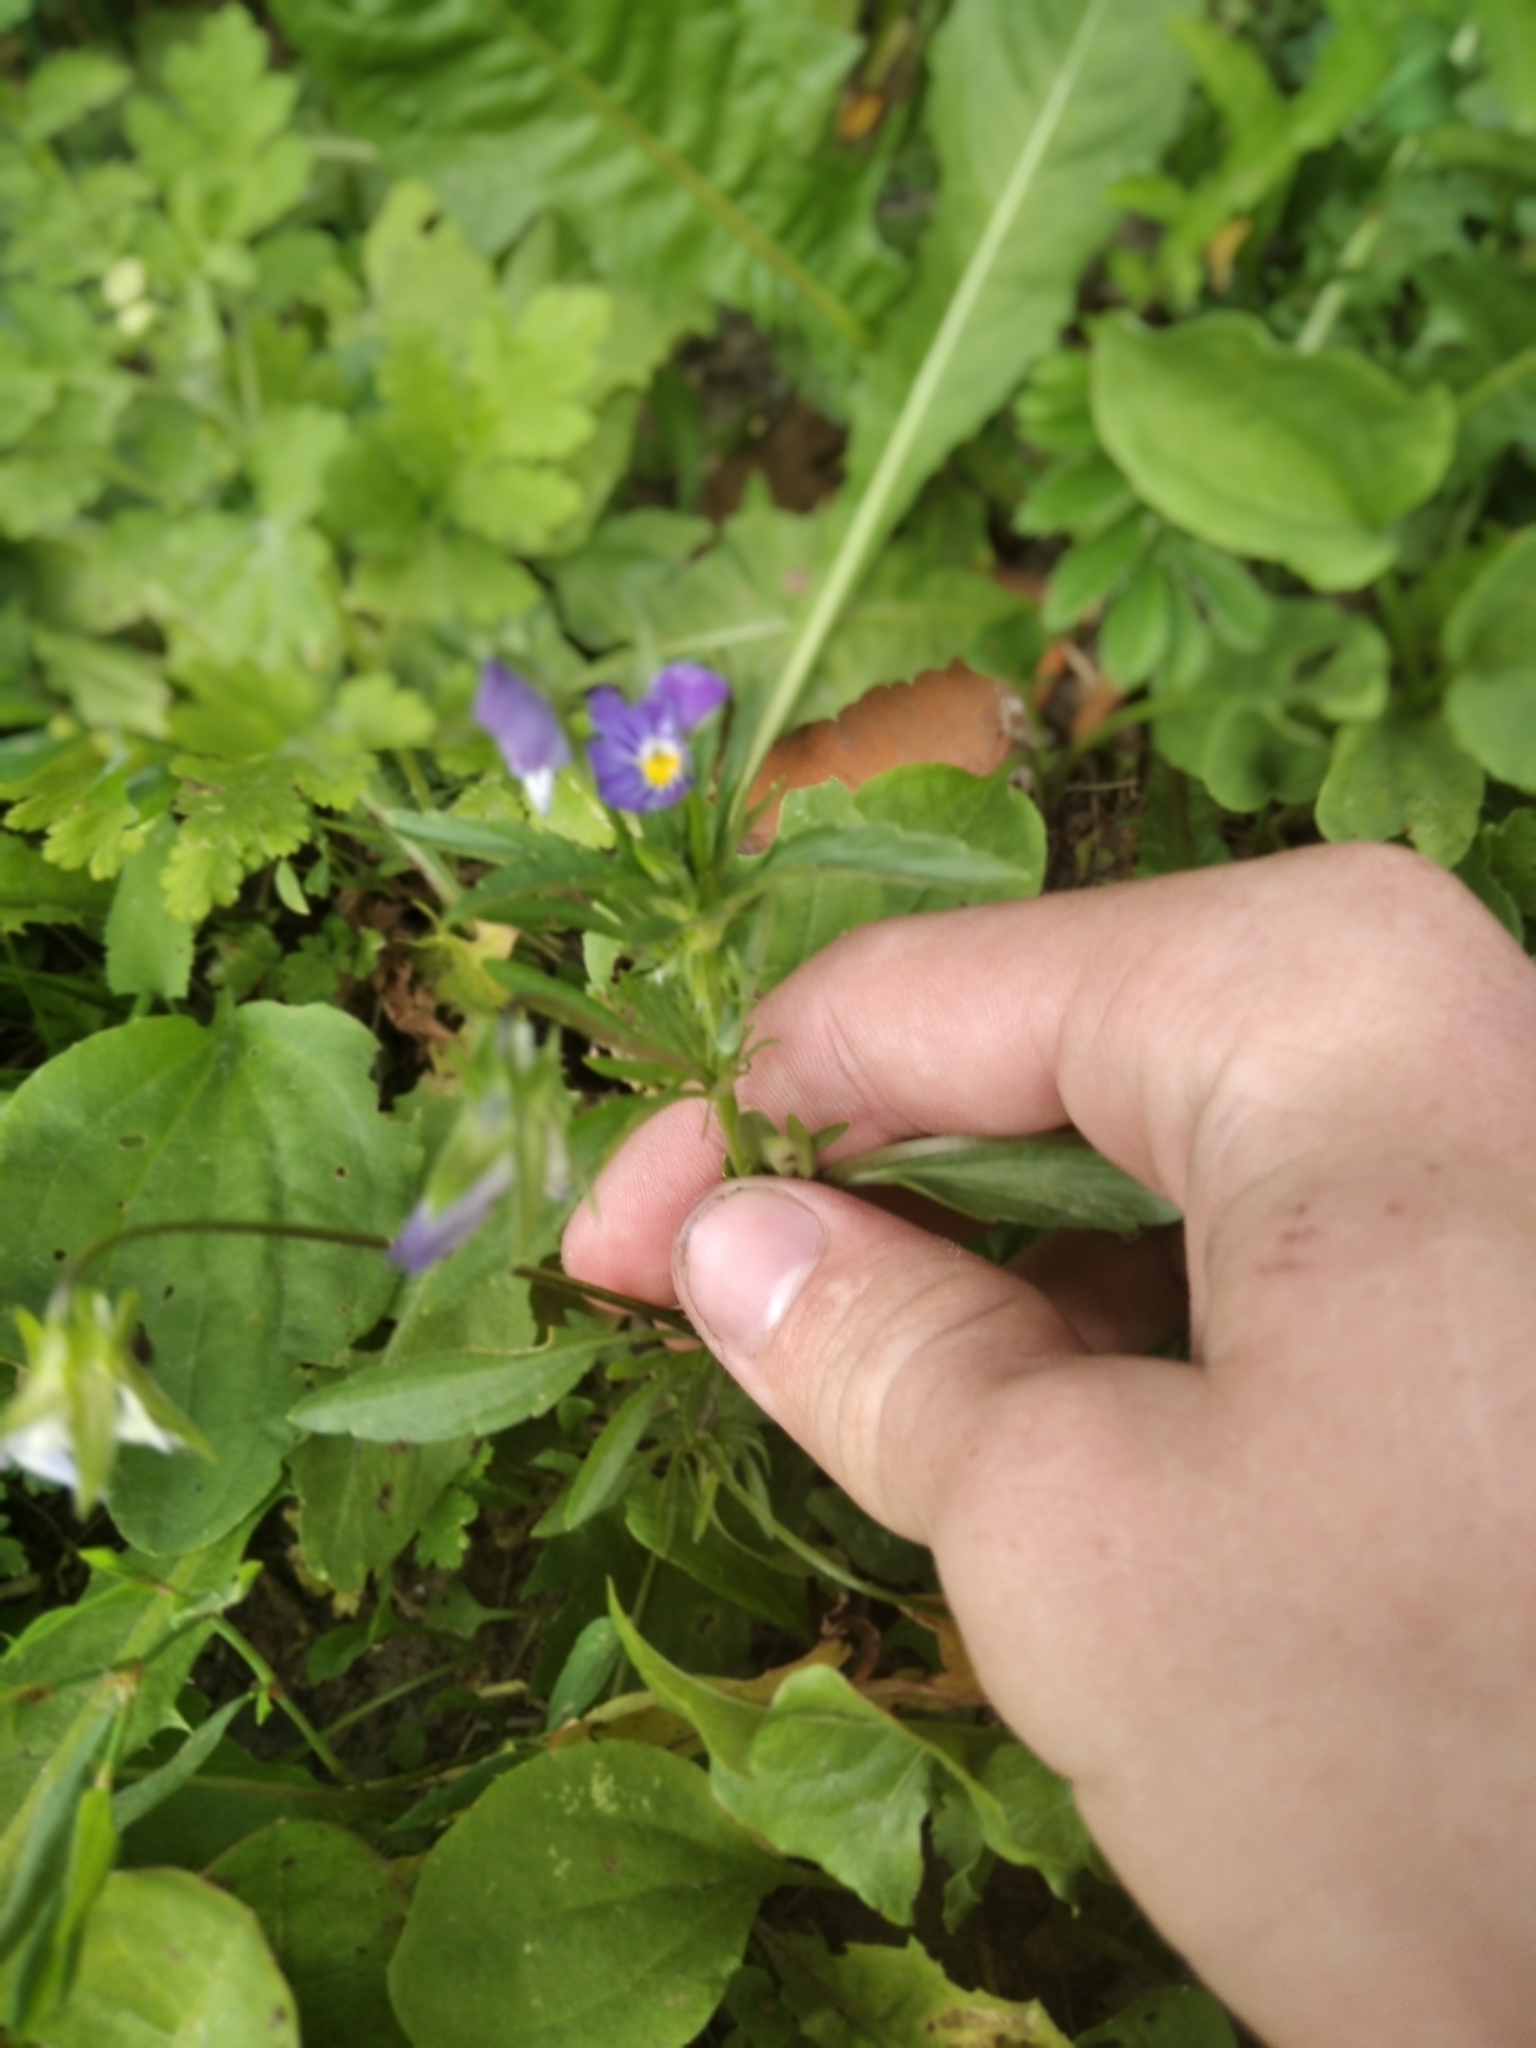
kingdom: Plantae
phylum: Tracheophyta
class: Magnoliopsida
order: Malpighiales
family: Violaceae
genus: Viola
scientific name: Viola tricolor
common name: Pansy
